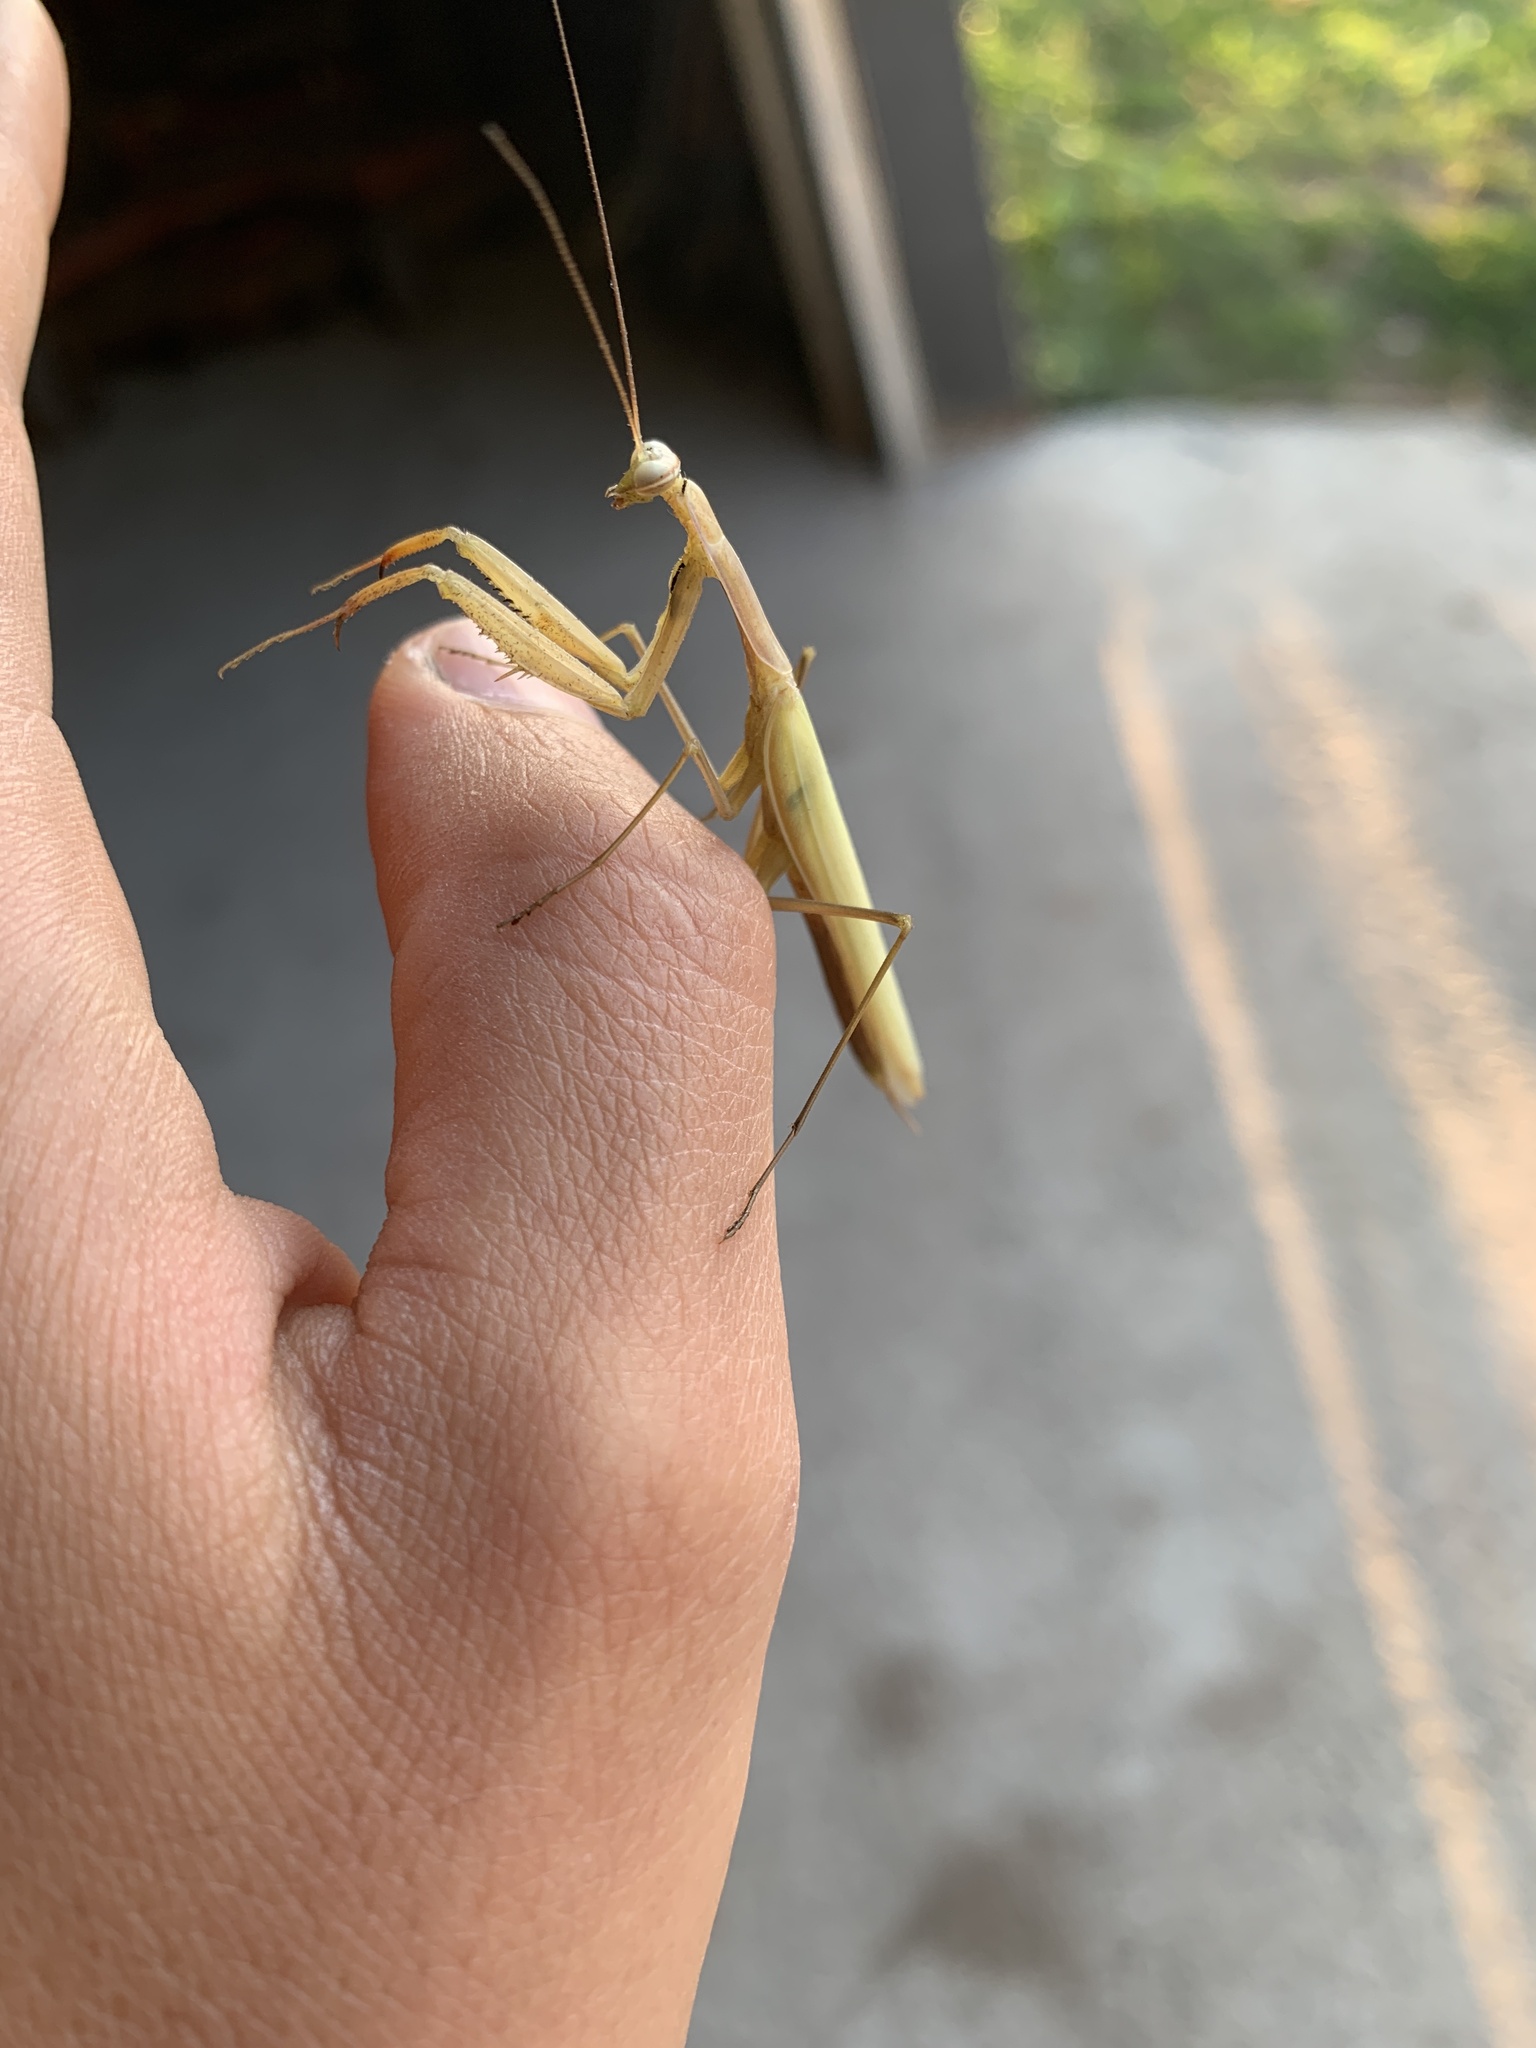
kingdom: Animalia
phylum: Arthropoda
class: Insecta
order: Mantodea
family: Mantidae
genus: Mantis
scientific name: Mantis religiosa
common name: Praying mantis
